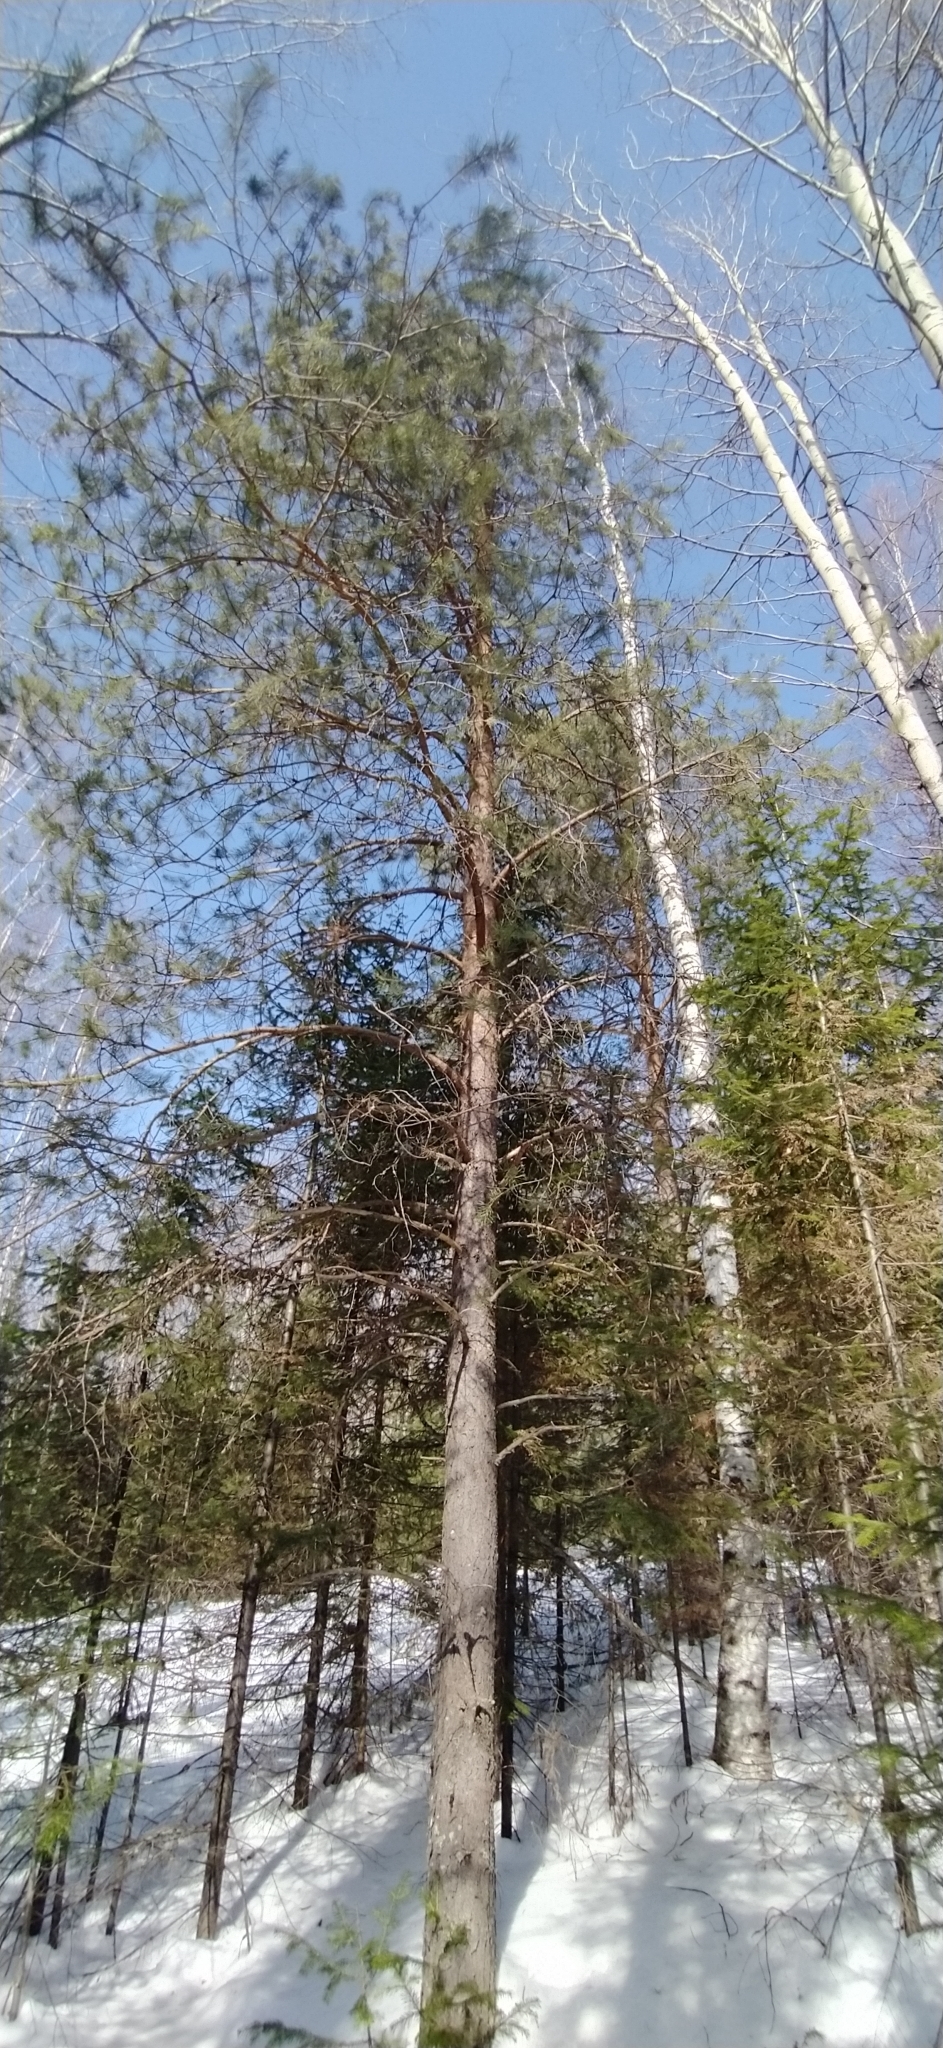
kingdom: Plantae
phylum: Tracheophyta
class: Pinopsida
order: Pinales
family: Pinaceae
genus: Pinus
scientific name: Pinus sylvestris
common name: Scots pine
